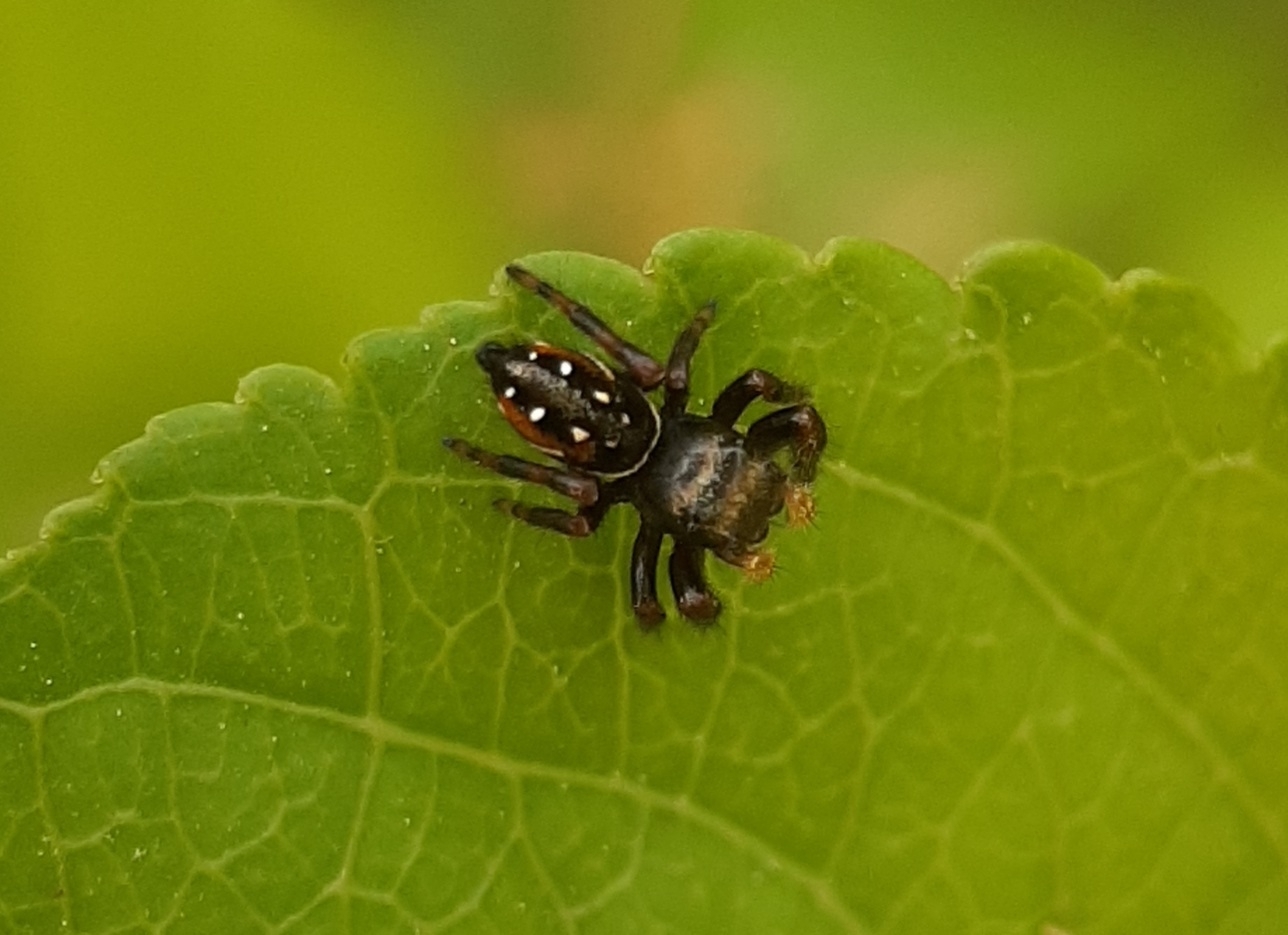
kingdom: Animalia
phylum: Arthropoda
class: Arachnida
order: Araneae
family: Salticidae
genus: Phidippus
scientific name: Phidippus clarus
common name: Brilliant jumping spider
